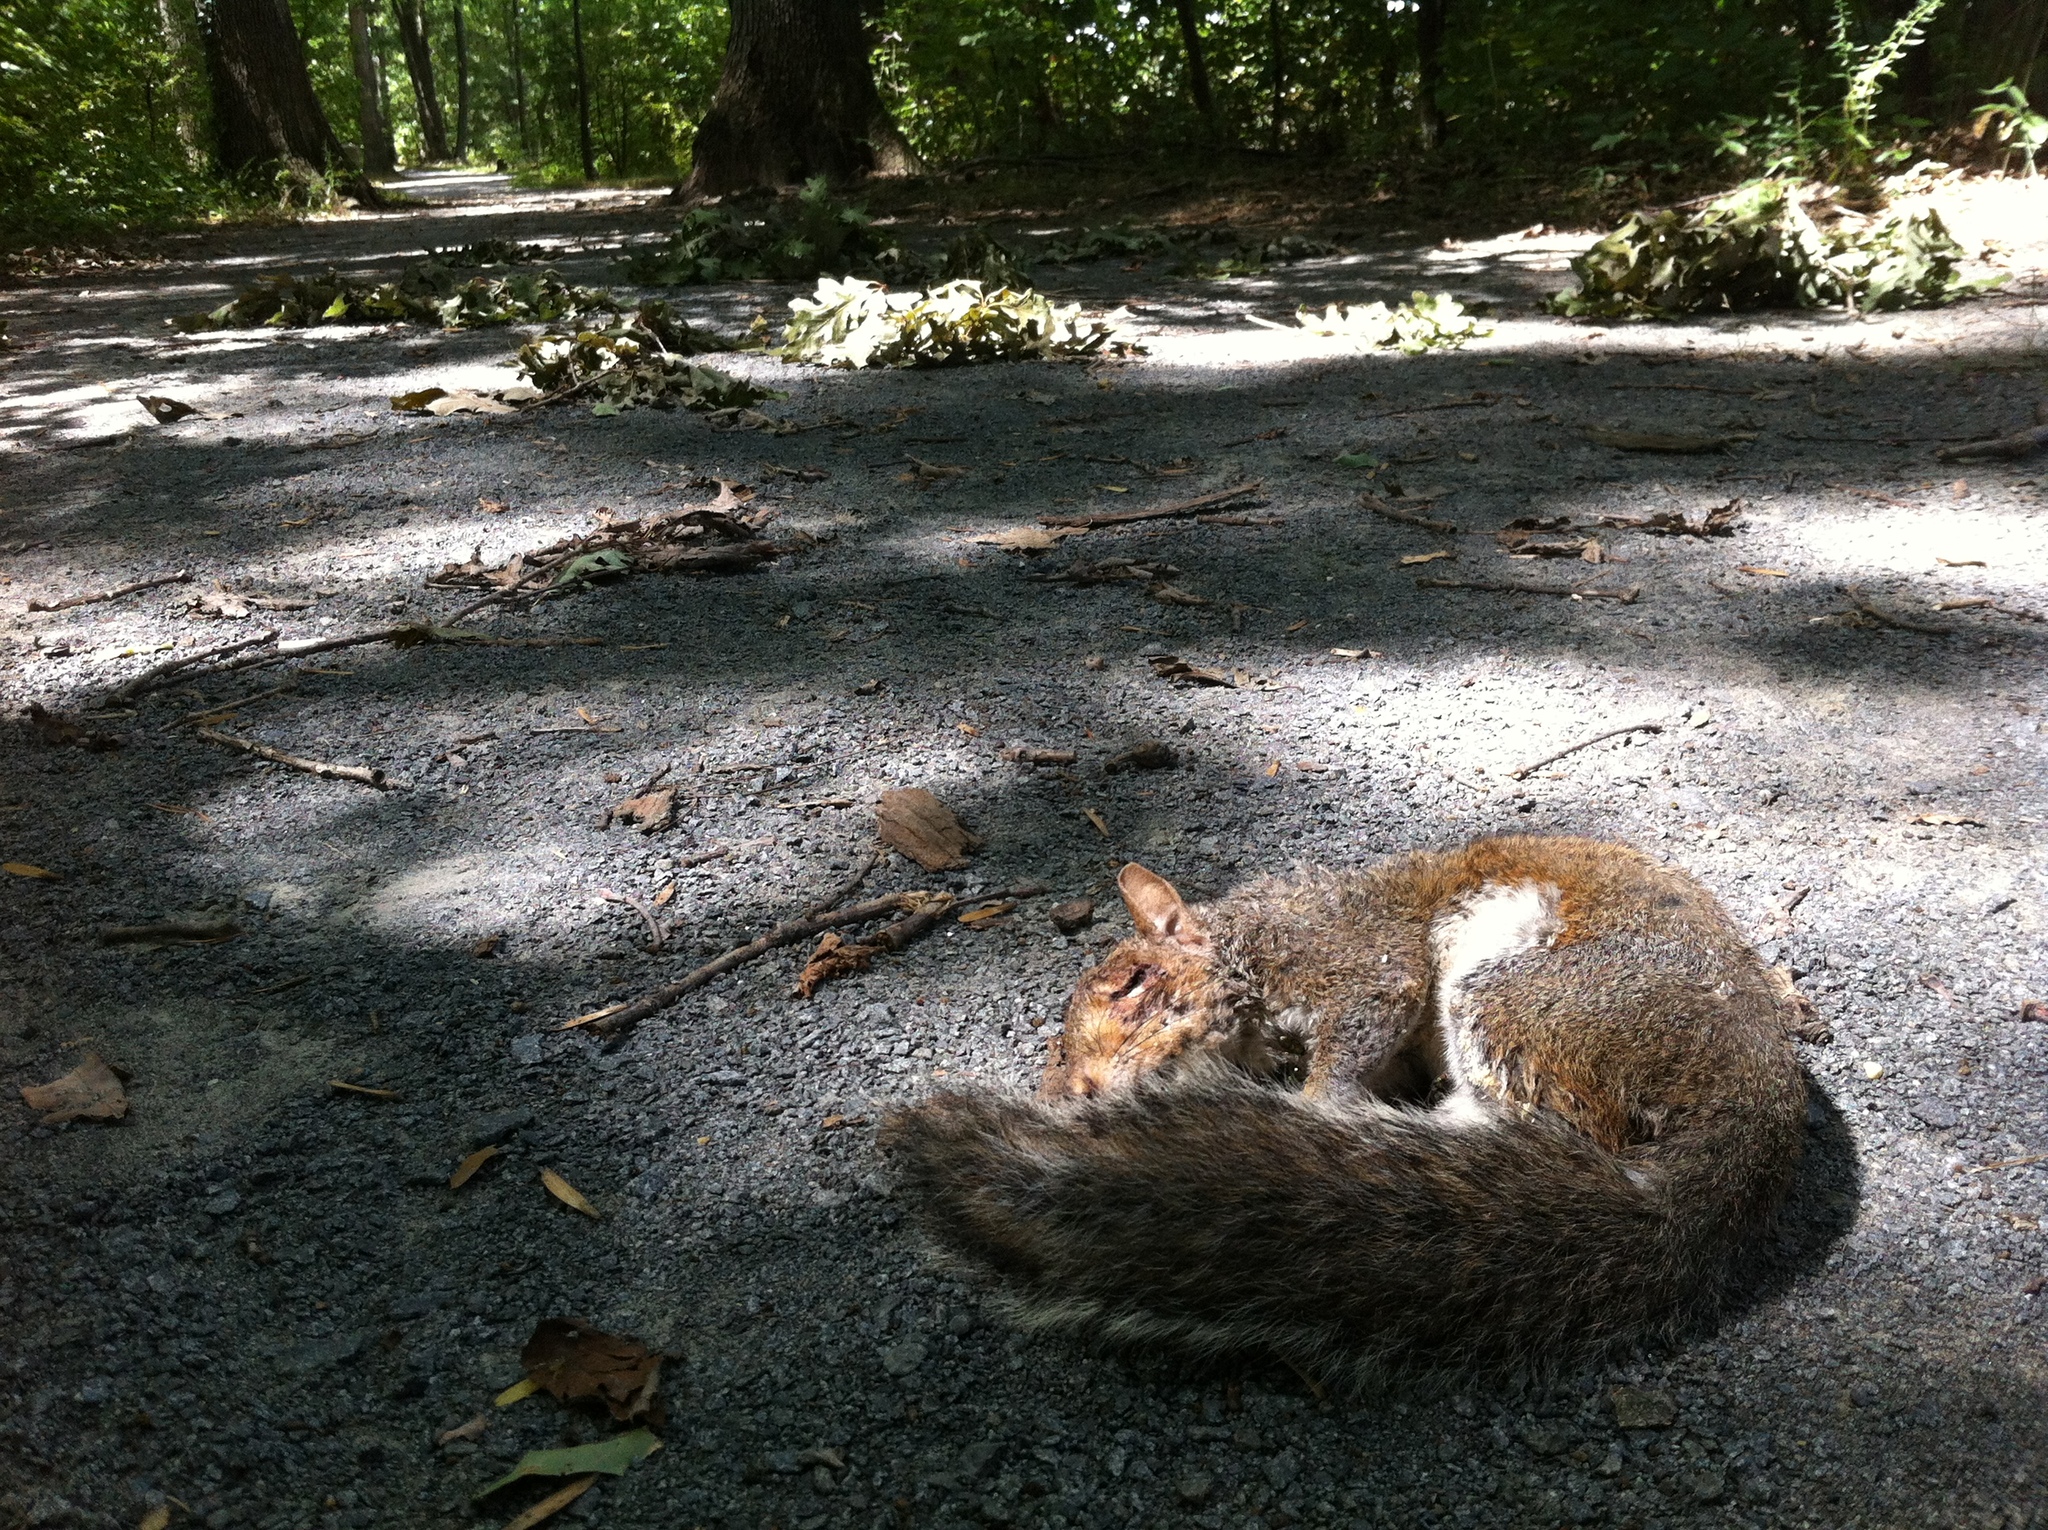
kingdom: Animalia
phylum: Chordata
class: Mammalia
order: Rodentia
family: Sciuridae
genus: Sciurus
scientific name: Sciurus carolinensis
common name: Eastern gray squirrel
